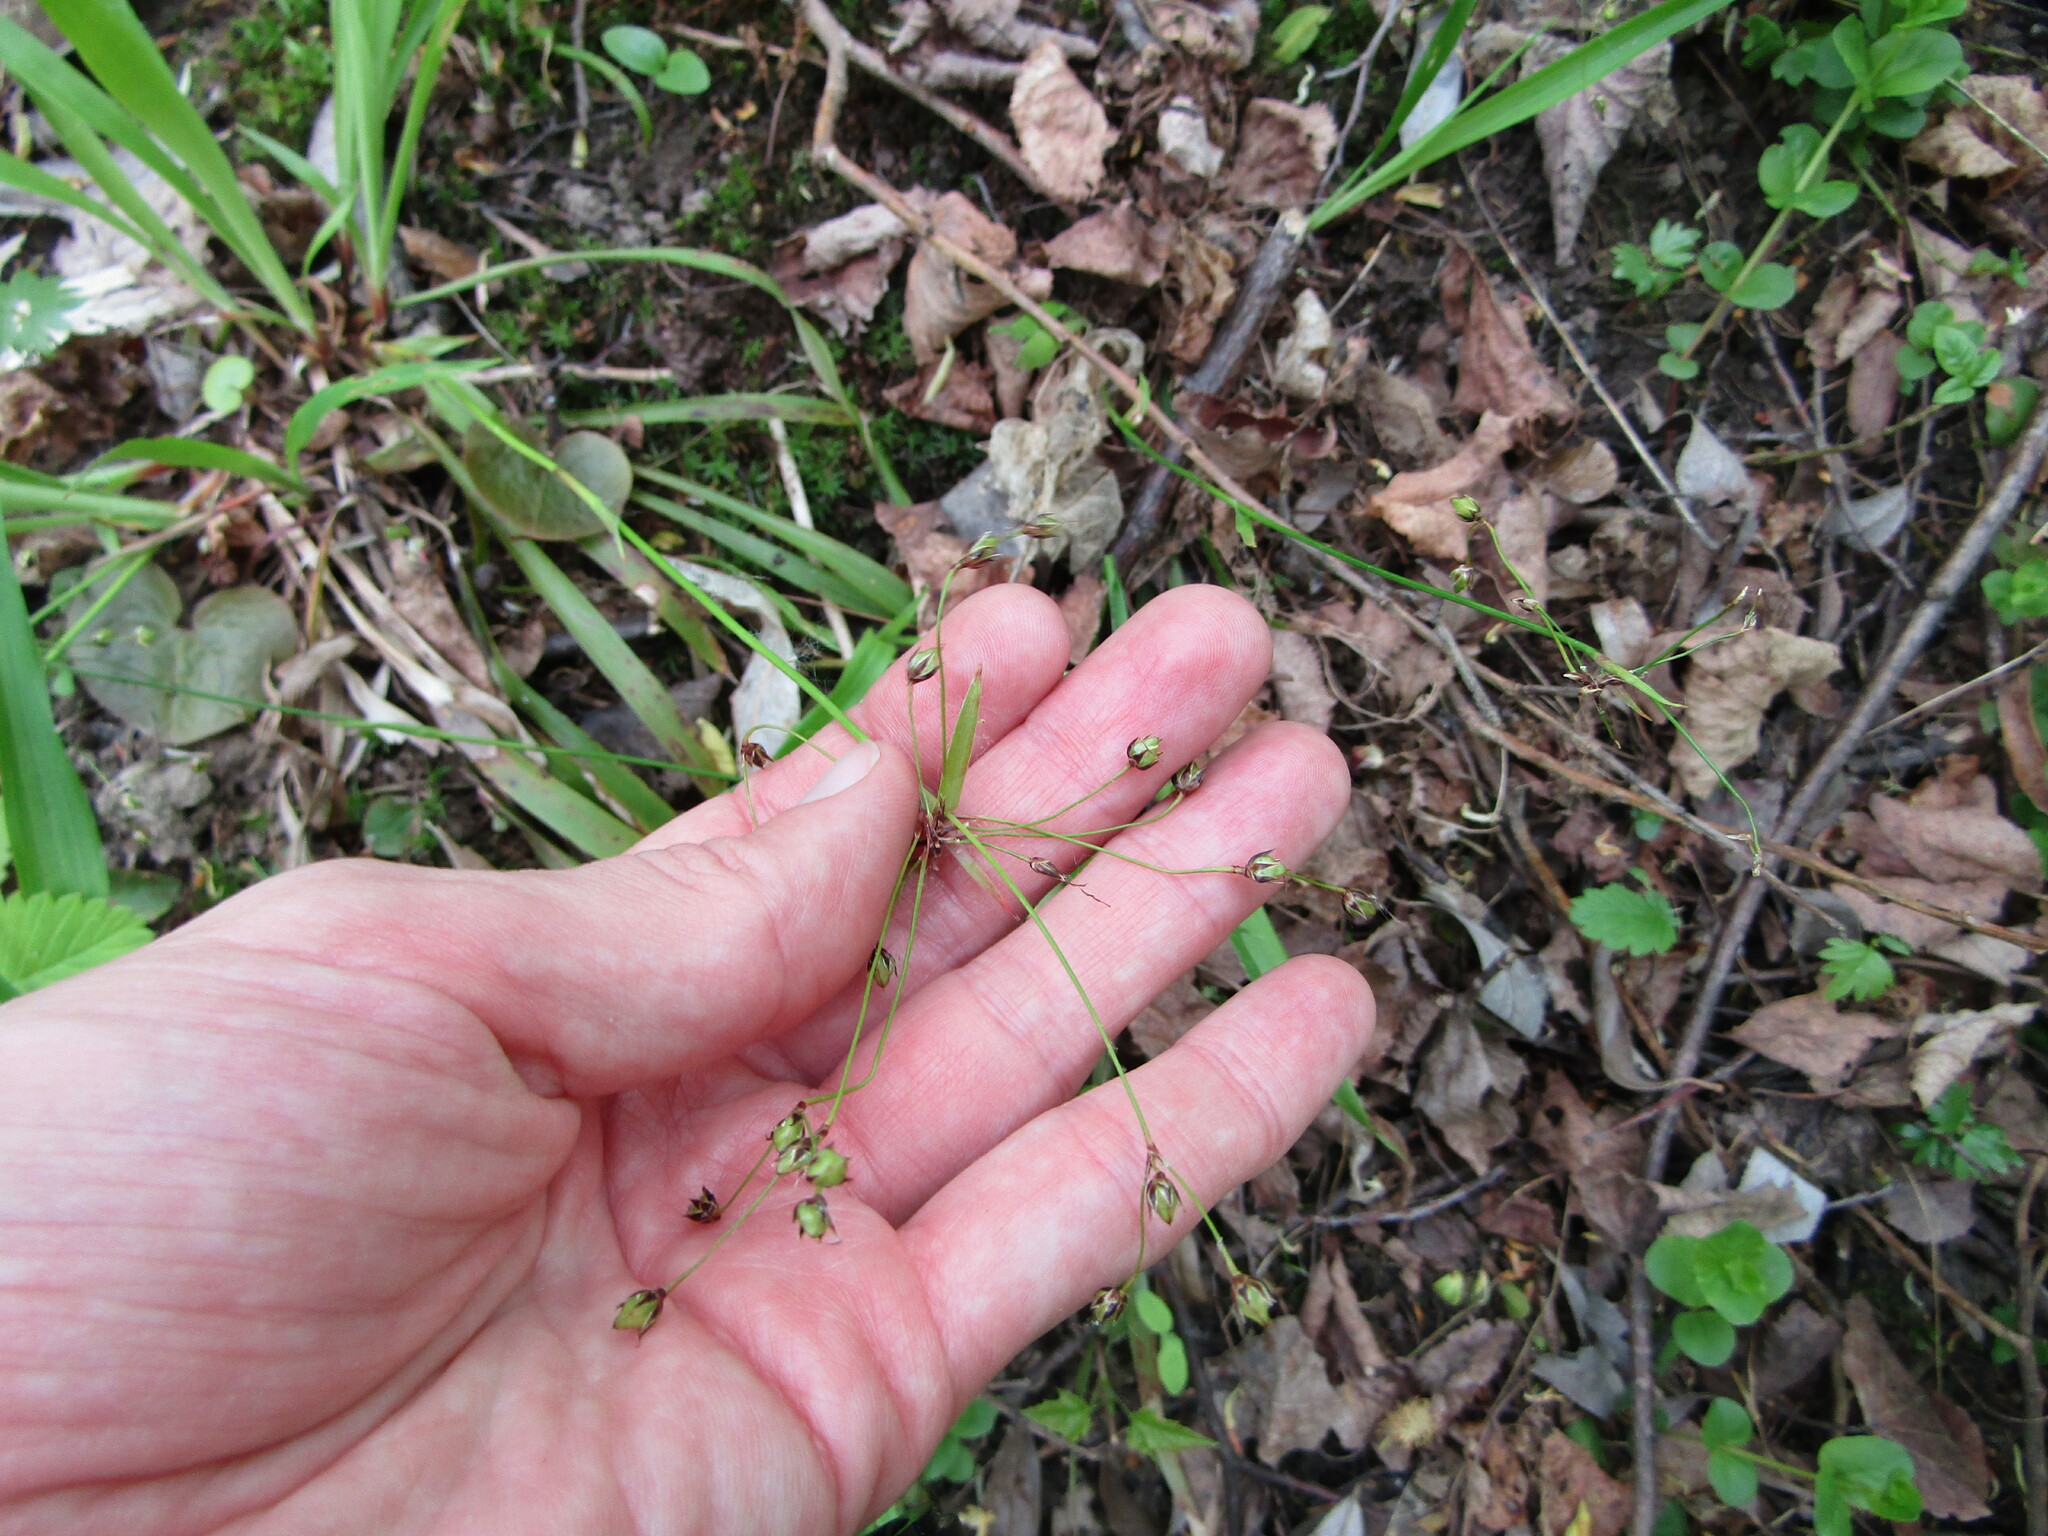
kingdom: Plantae
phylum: Tracheophyta
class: Liliopsida
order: Poales
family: Juncaceae
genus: Luzula
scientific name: Luzula pilosa
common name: Hairy wood-rush
